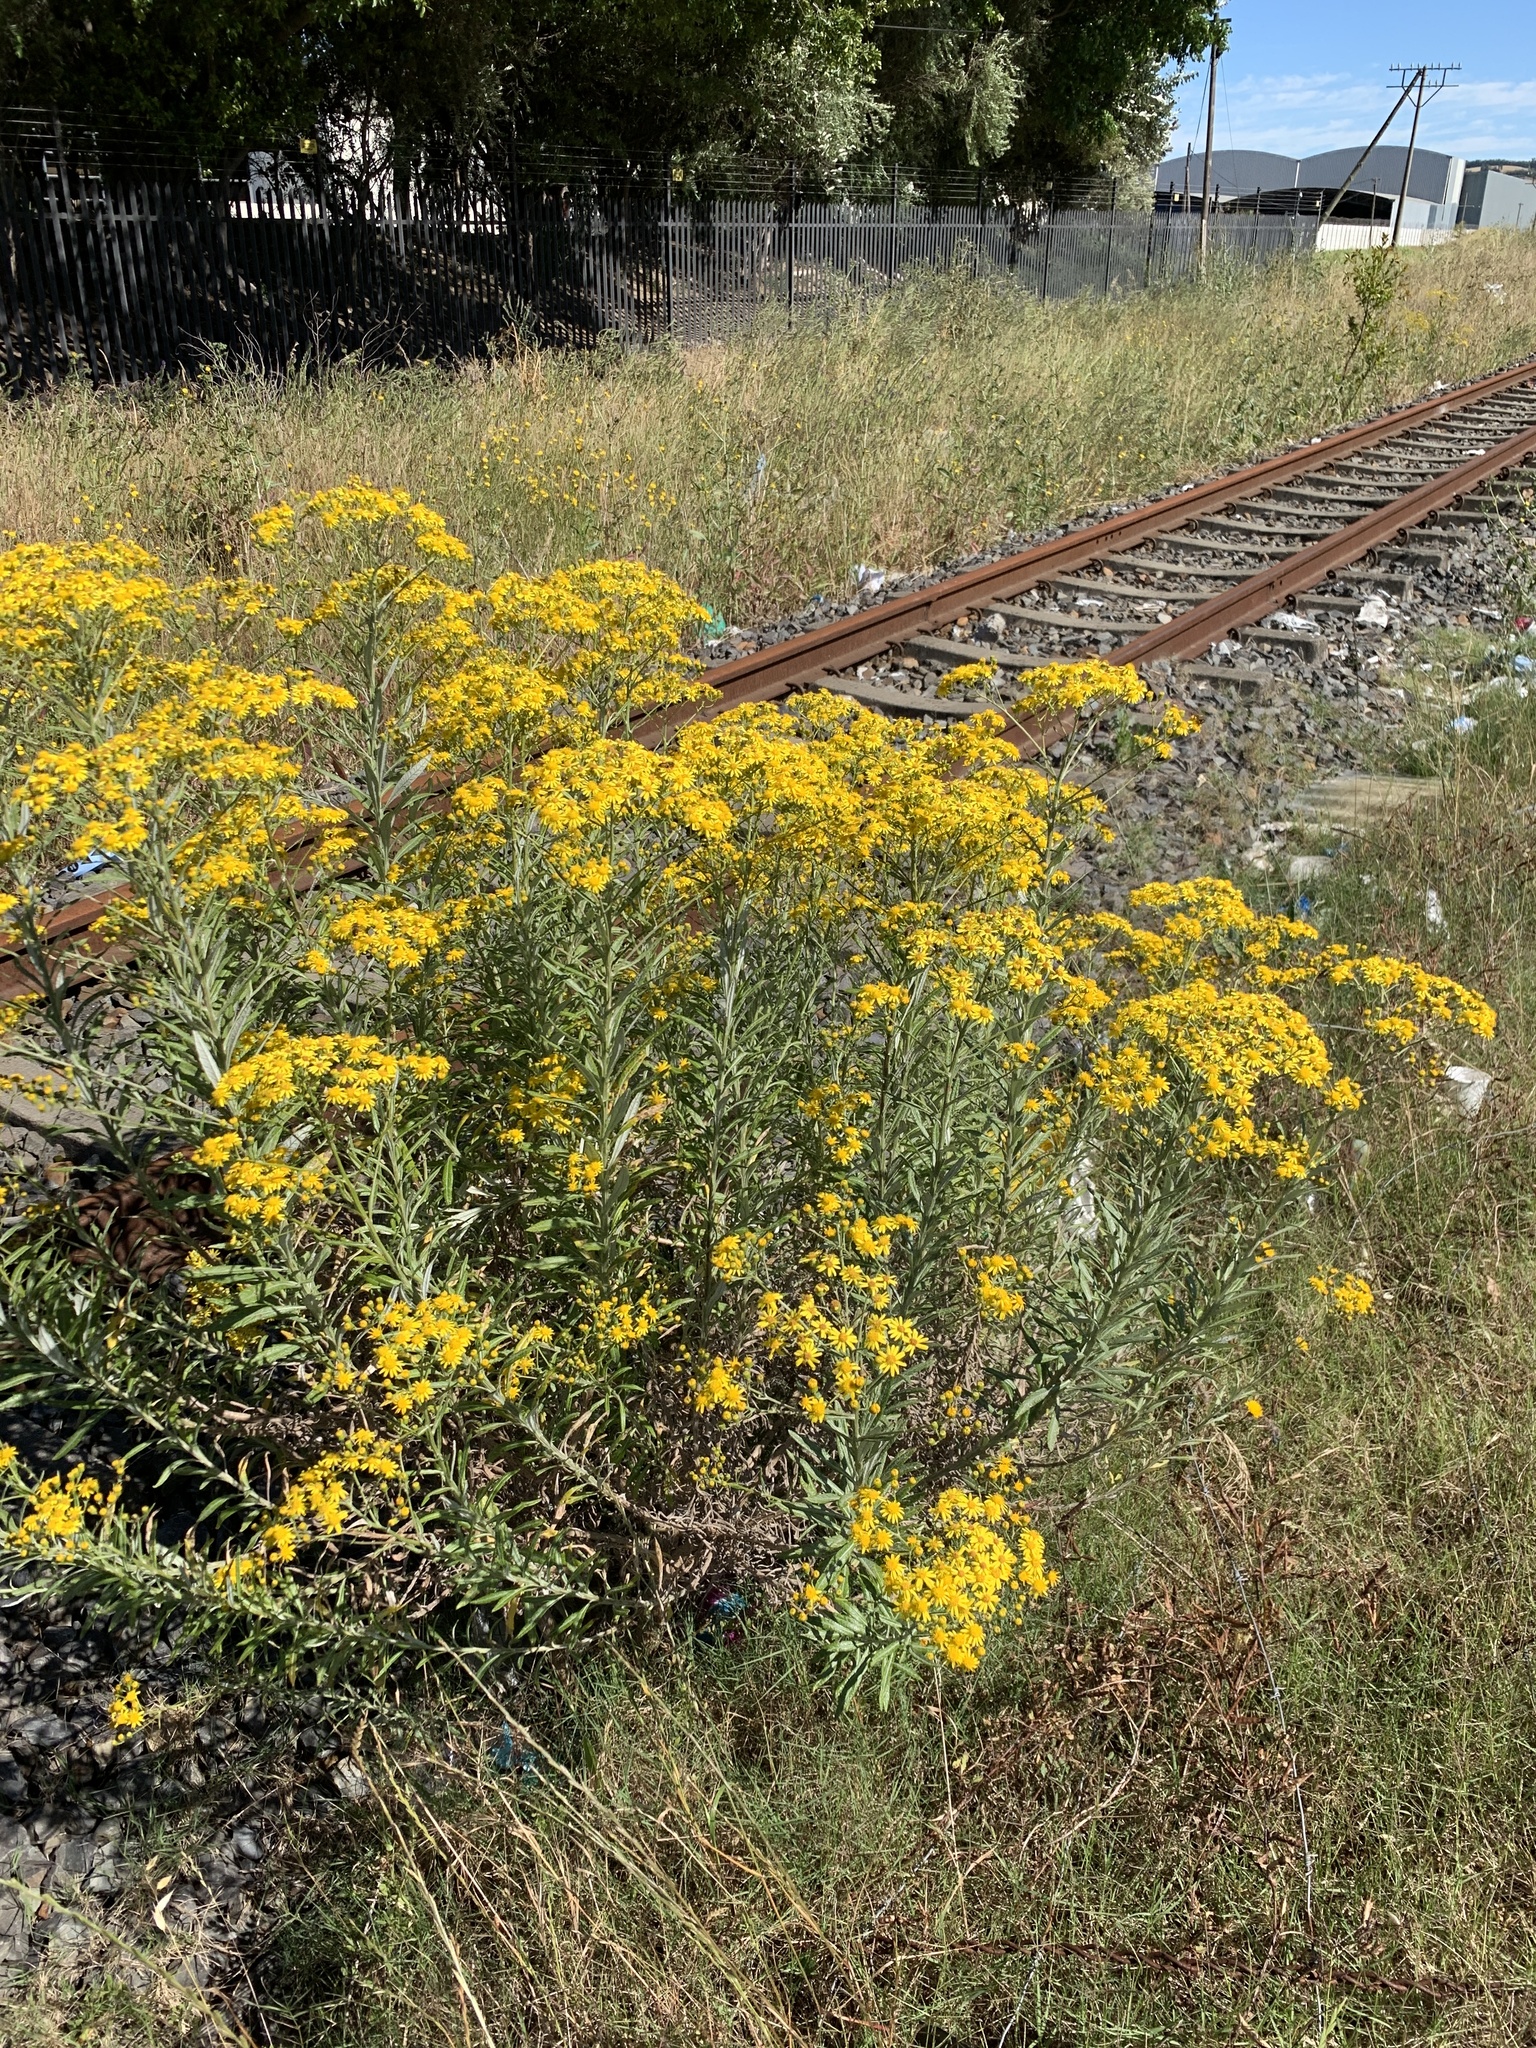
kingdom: Plantae
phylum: Tracheophyta
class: Magnoliopsida
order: Asterales
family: Asteraceae
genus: Senecio
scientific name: Senecio pterophorus
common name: Shoddy ragwort
